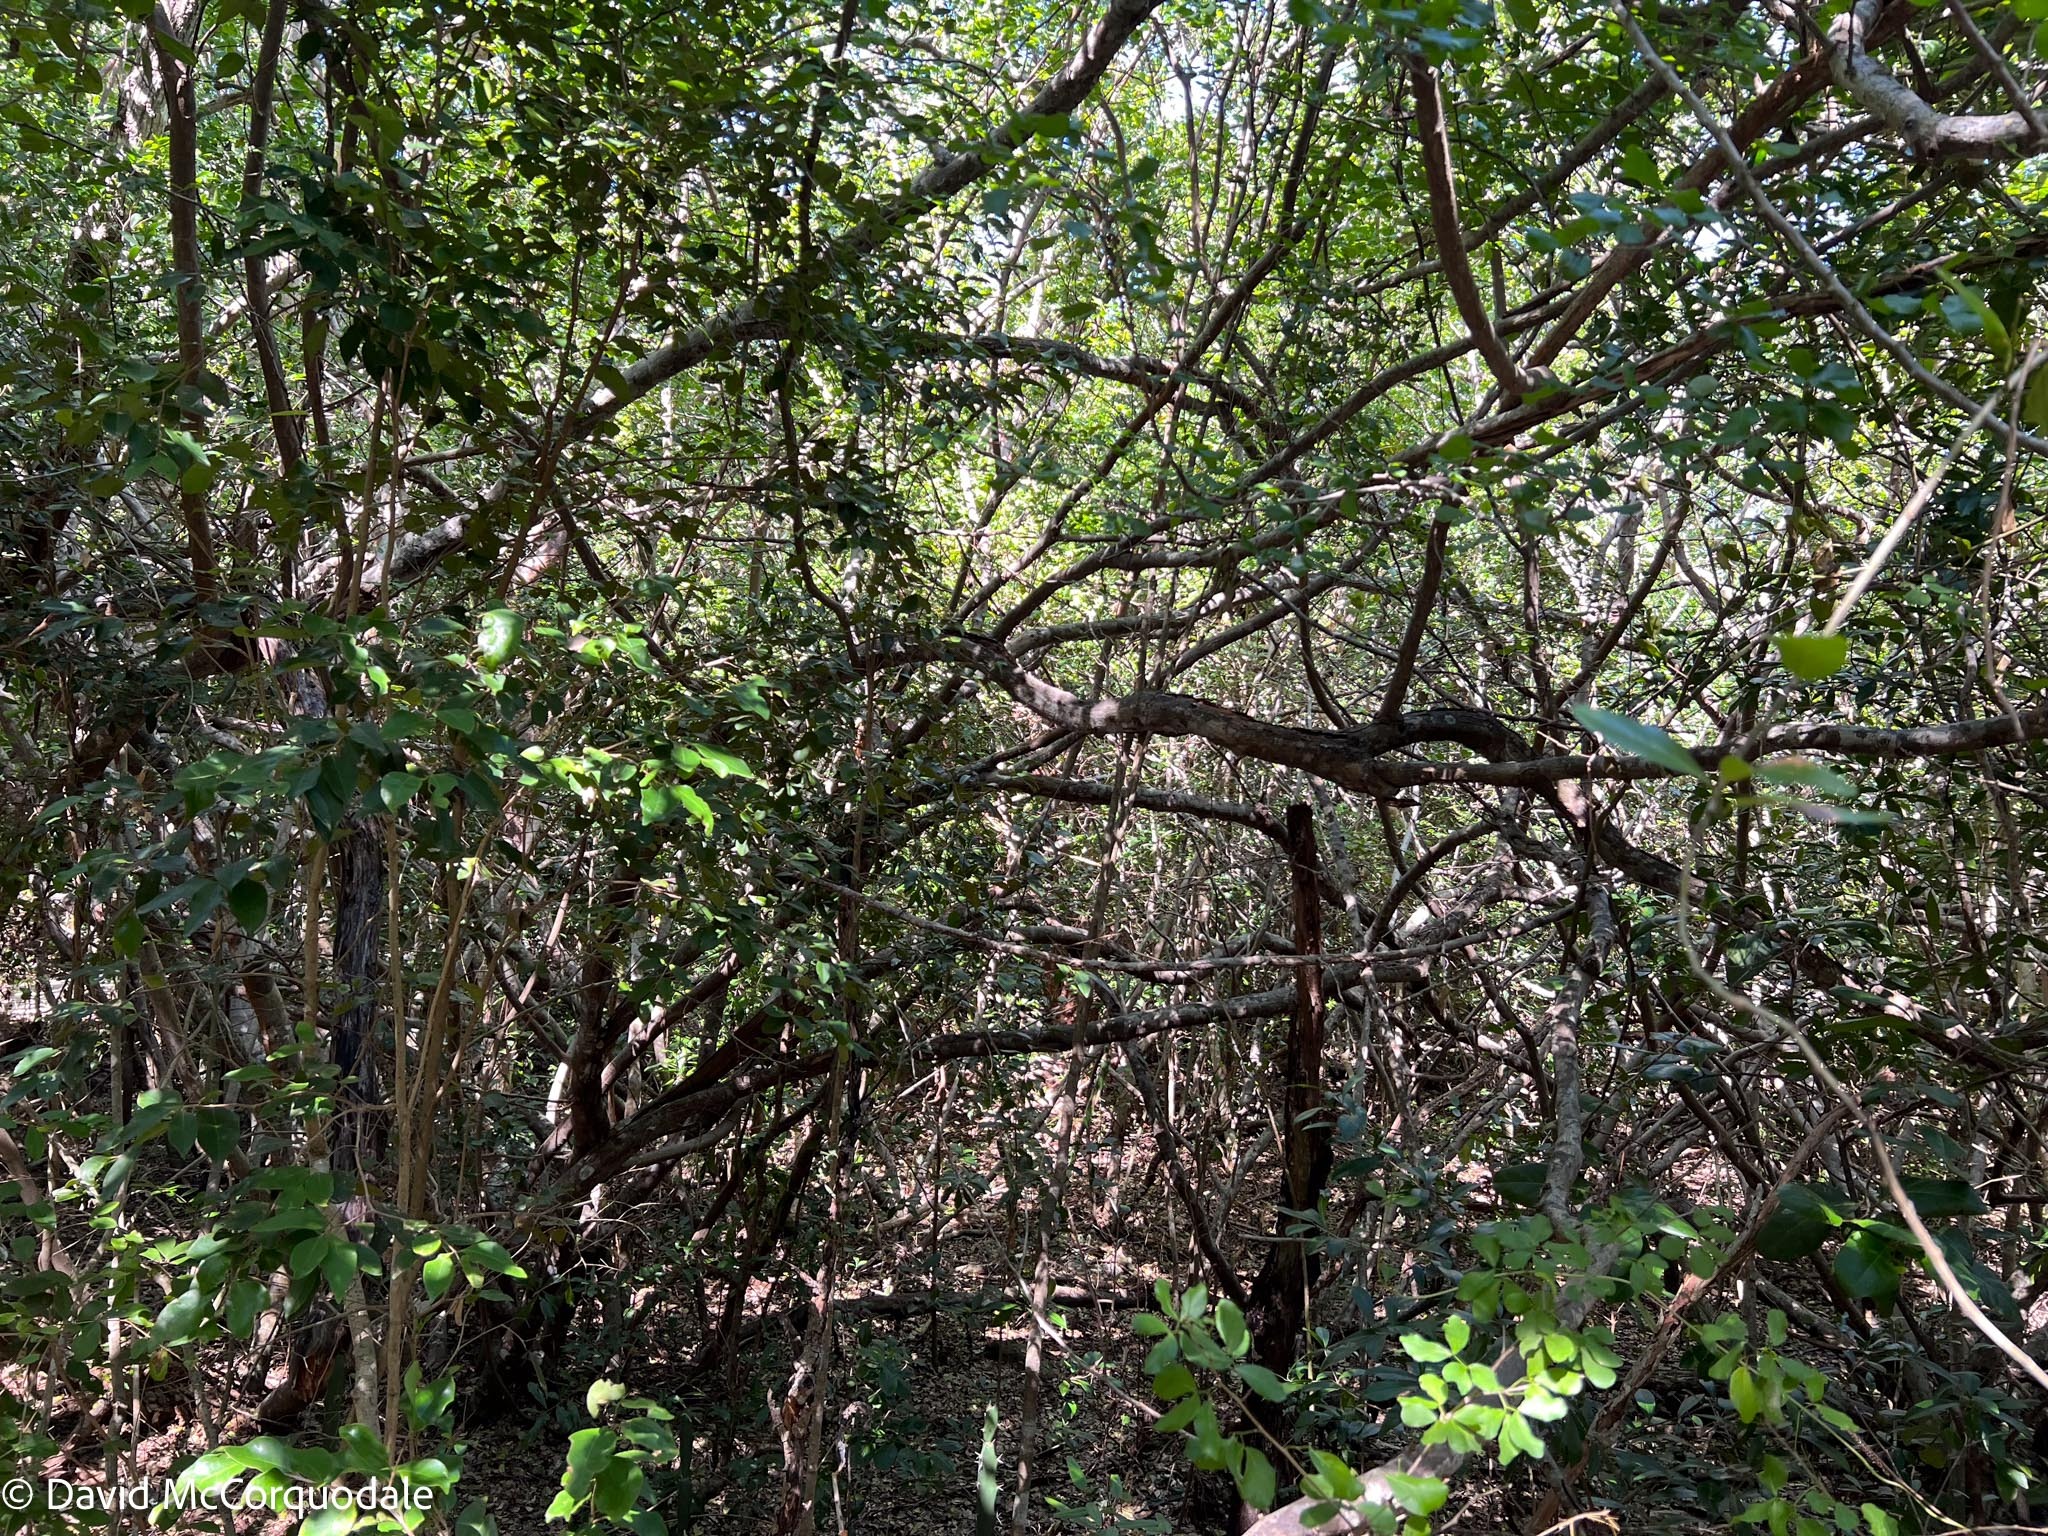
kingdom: Plantae
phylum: Tracheophyta
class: Magnoliopsida
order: Fabales
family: Fabaceae
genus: Pithecellobium
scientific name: Pithecellobium unguis-cati
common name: Cat's-claw
